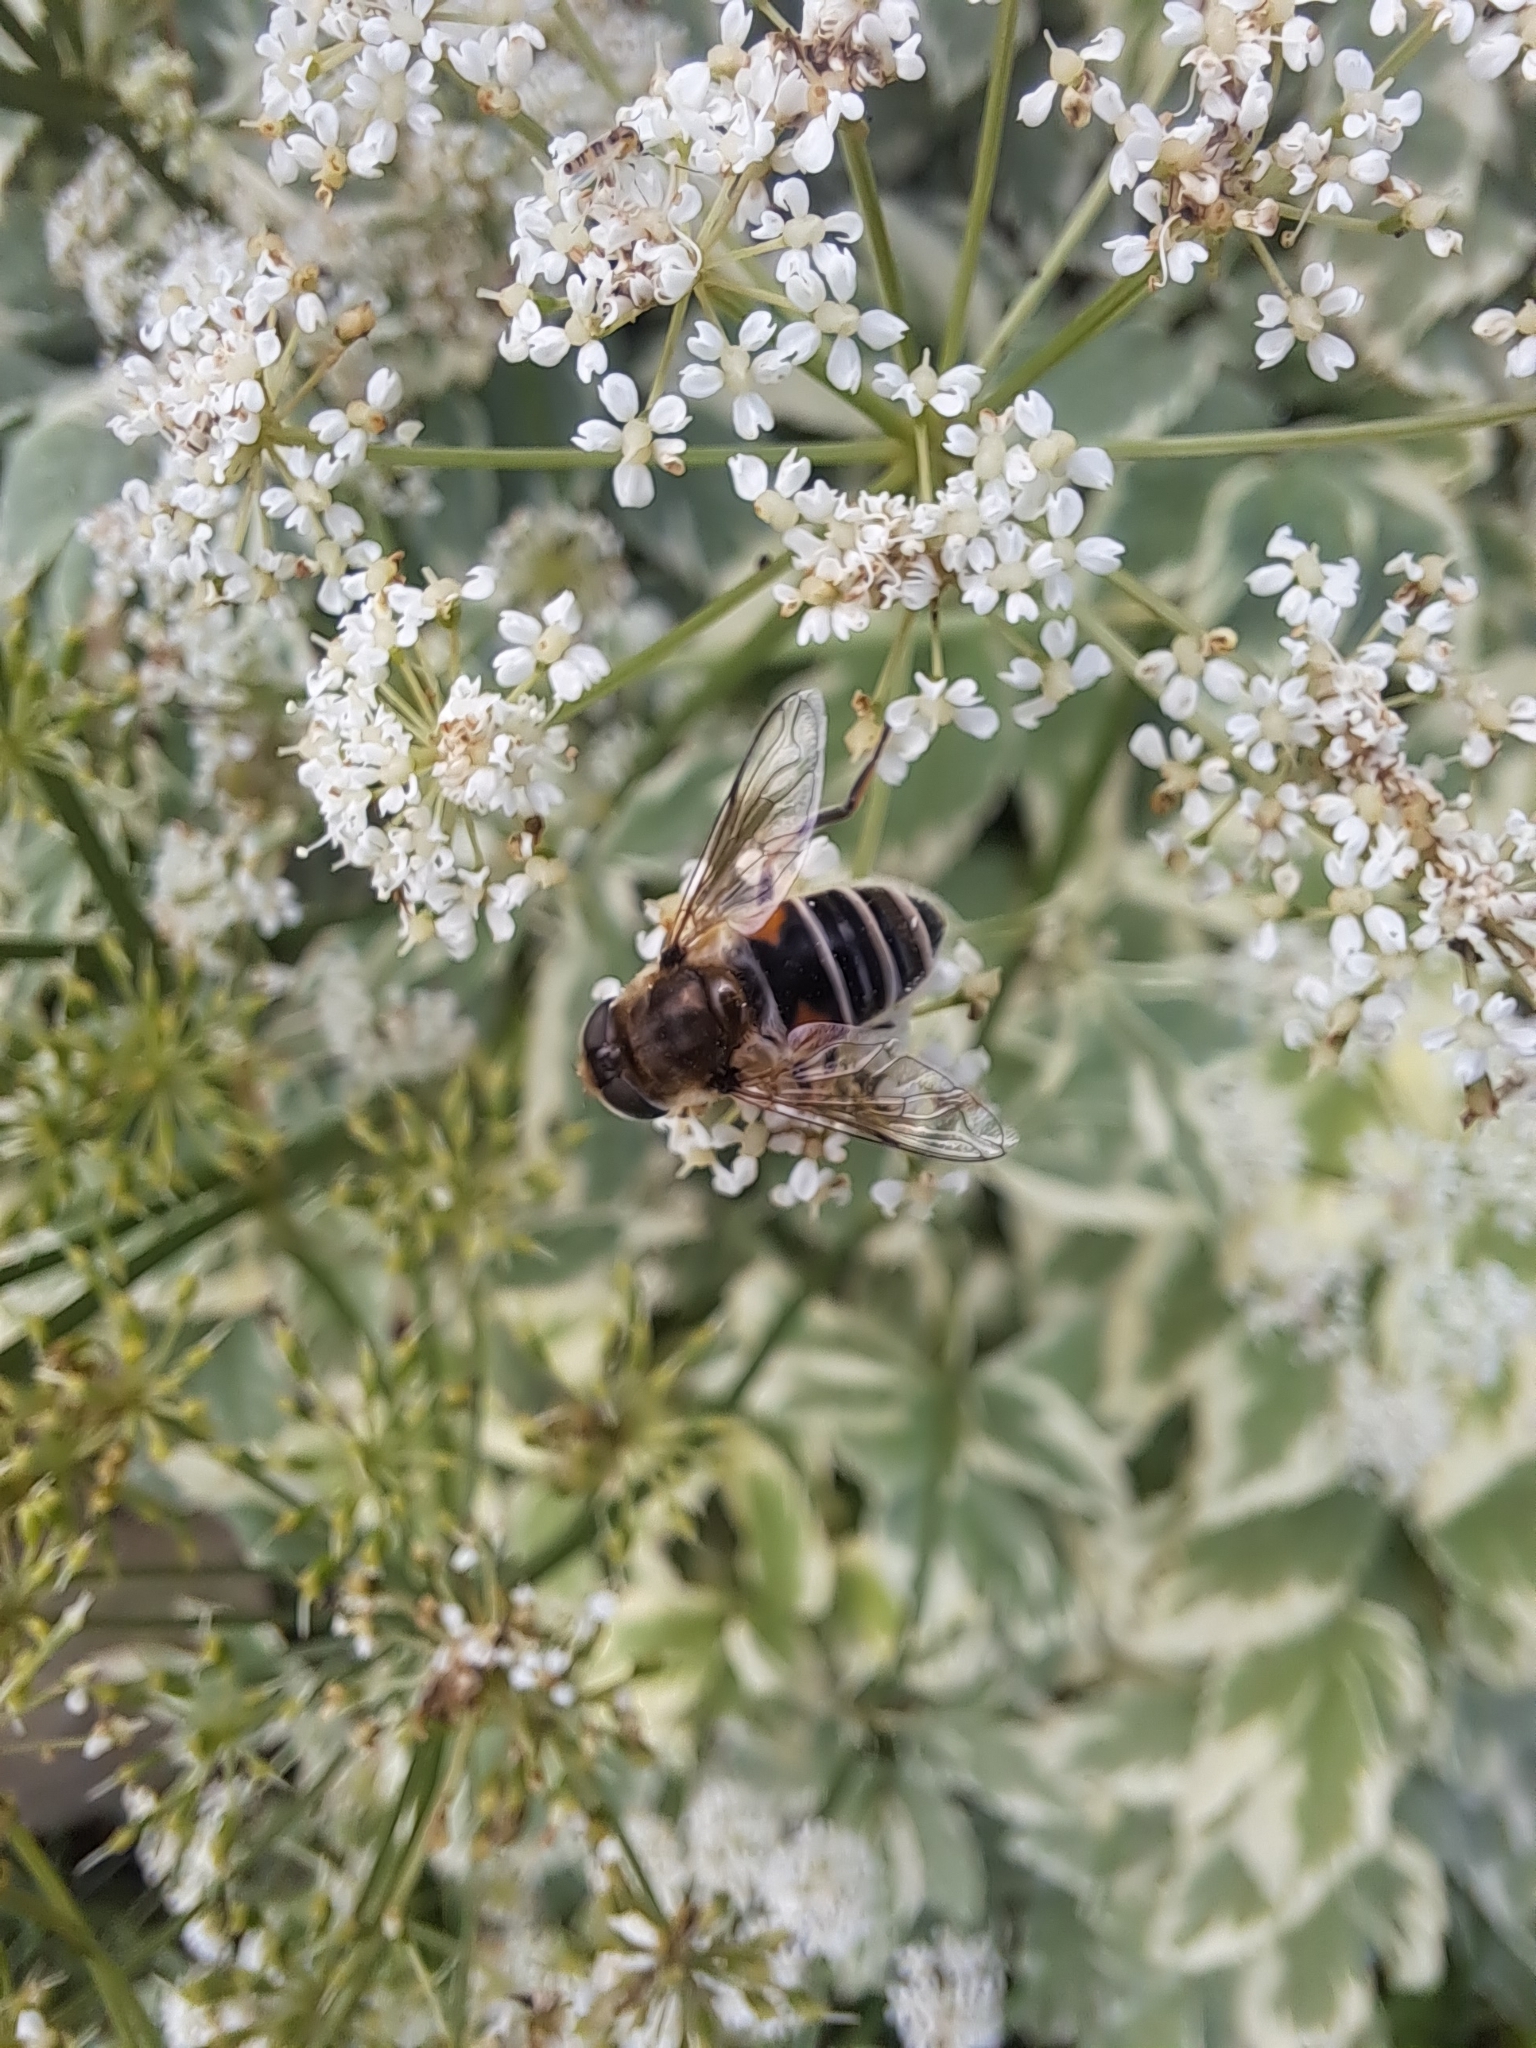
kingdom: Animalia
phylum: Arthropoda
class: Insecta
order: Diptera
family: Syrphidae
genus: Eristalis
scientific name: Eristalis arbustorum
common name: Hover fly
